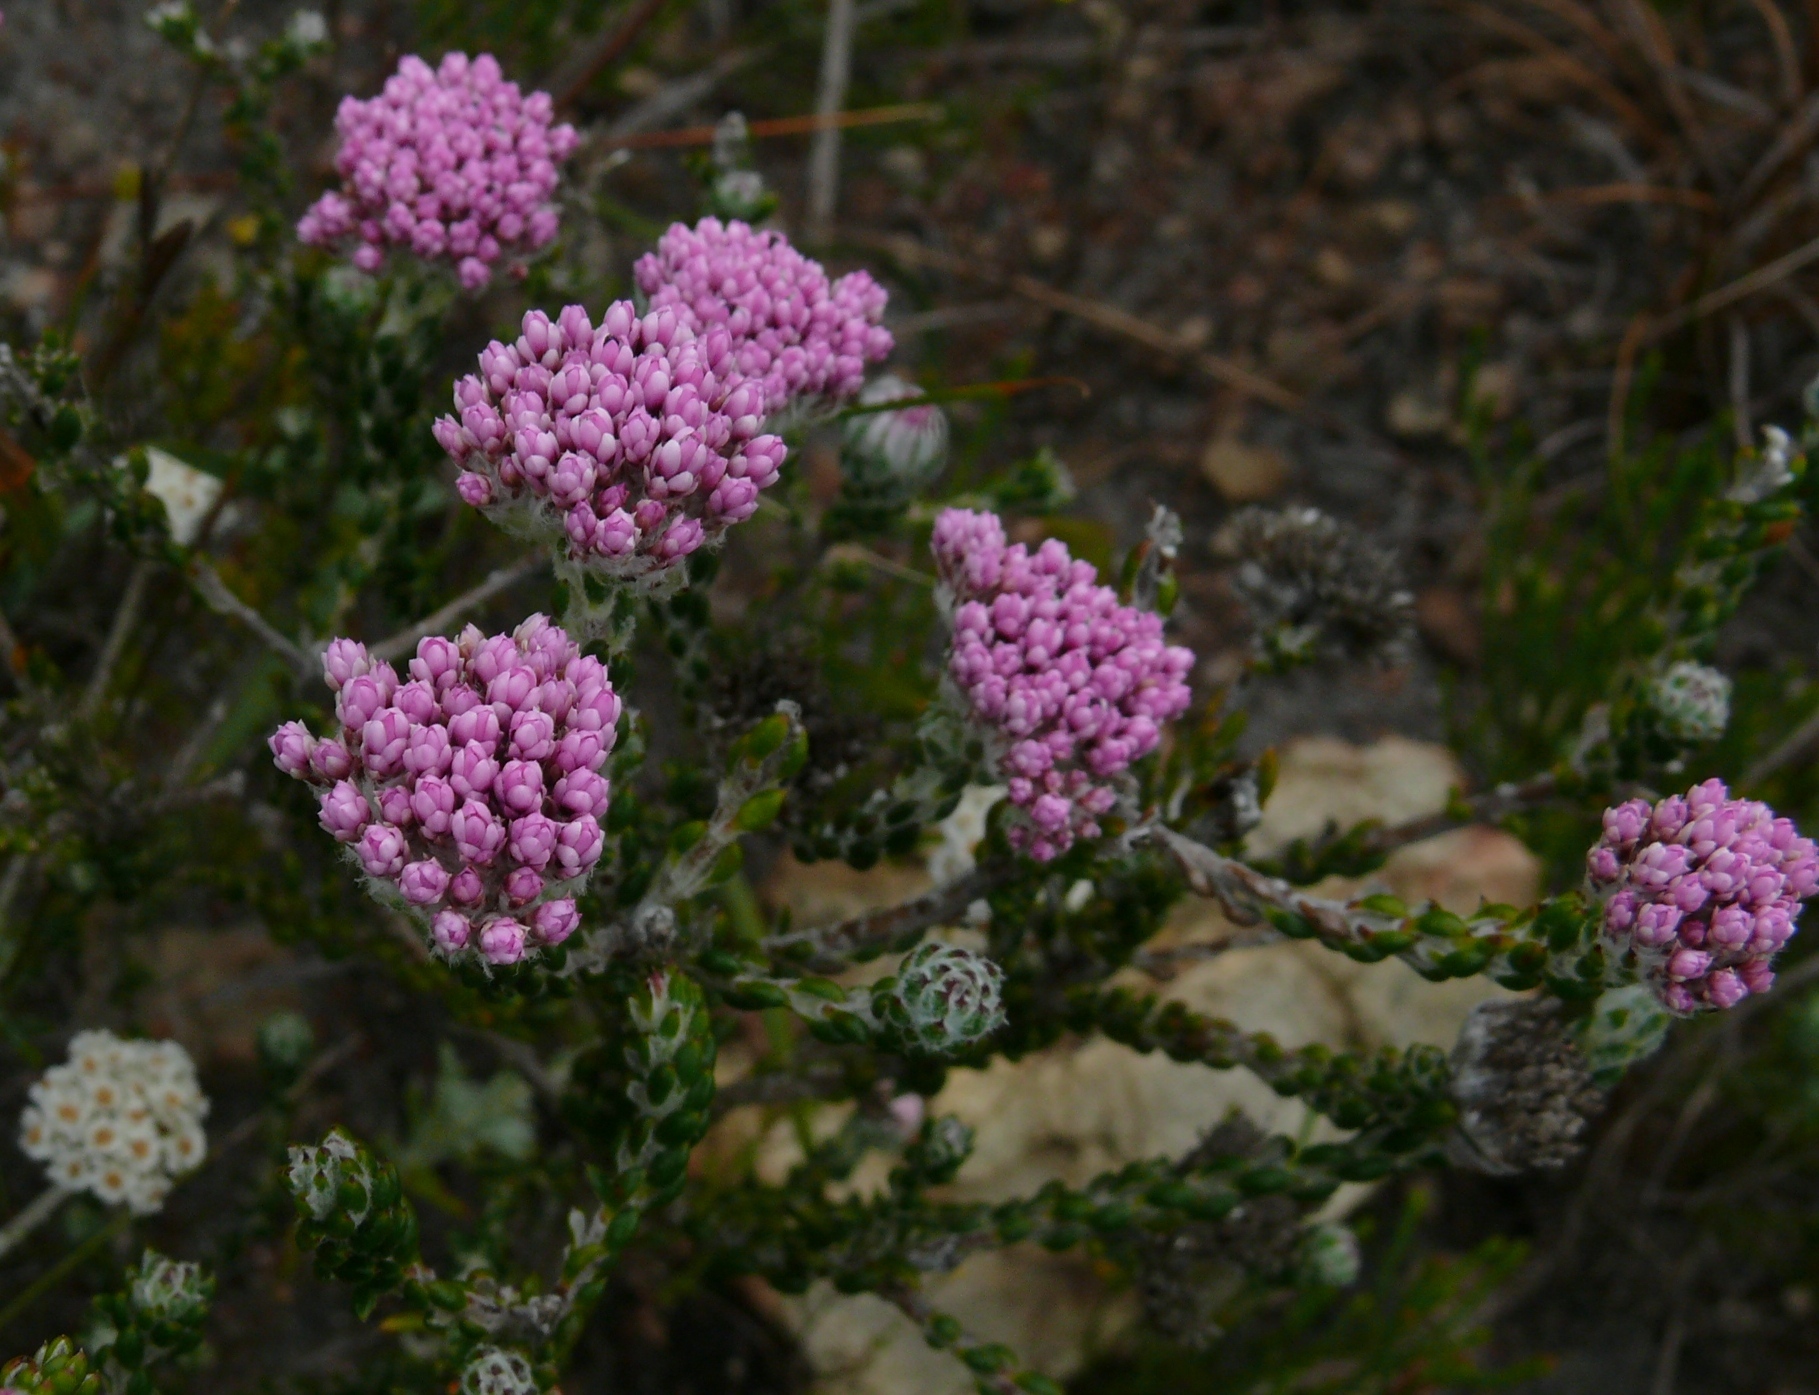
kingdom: Plantae
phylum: Tracheophyta
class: Magnoliopsida
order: Asterales
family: Asteraceae
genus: Metalasia
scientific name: Metalasia cymbifolia
